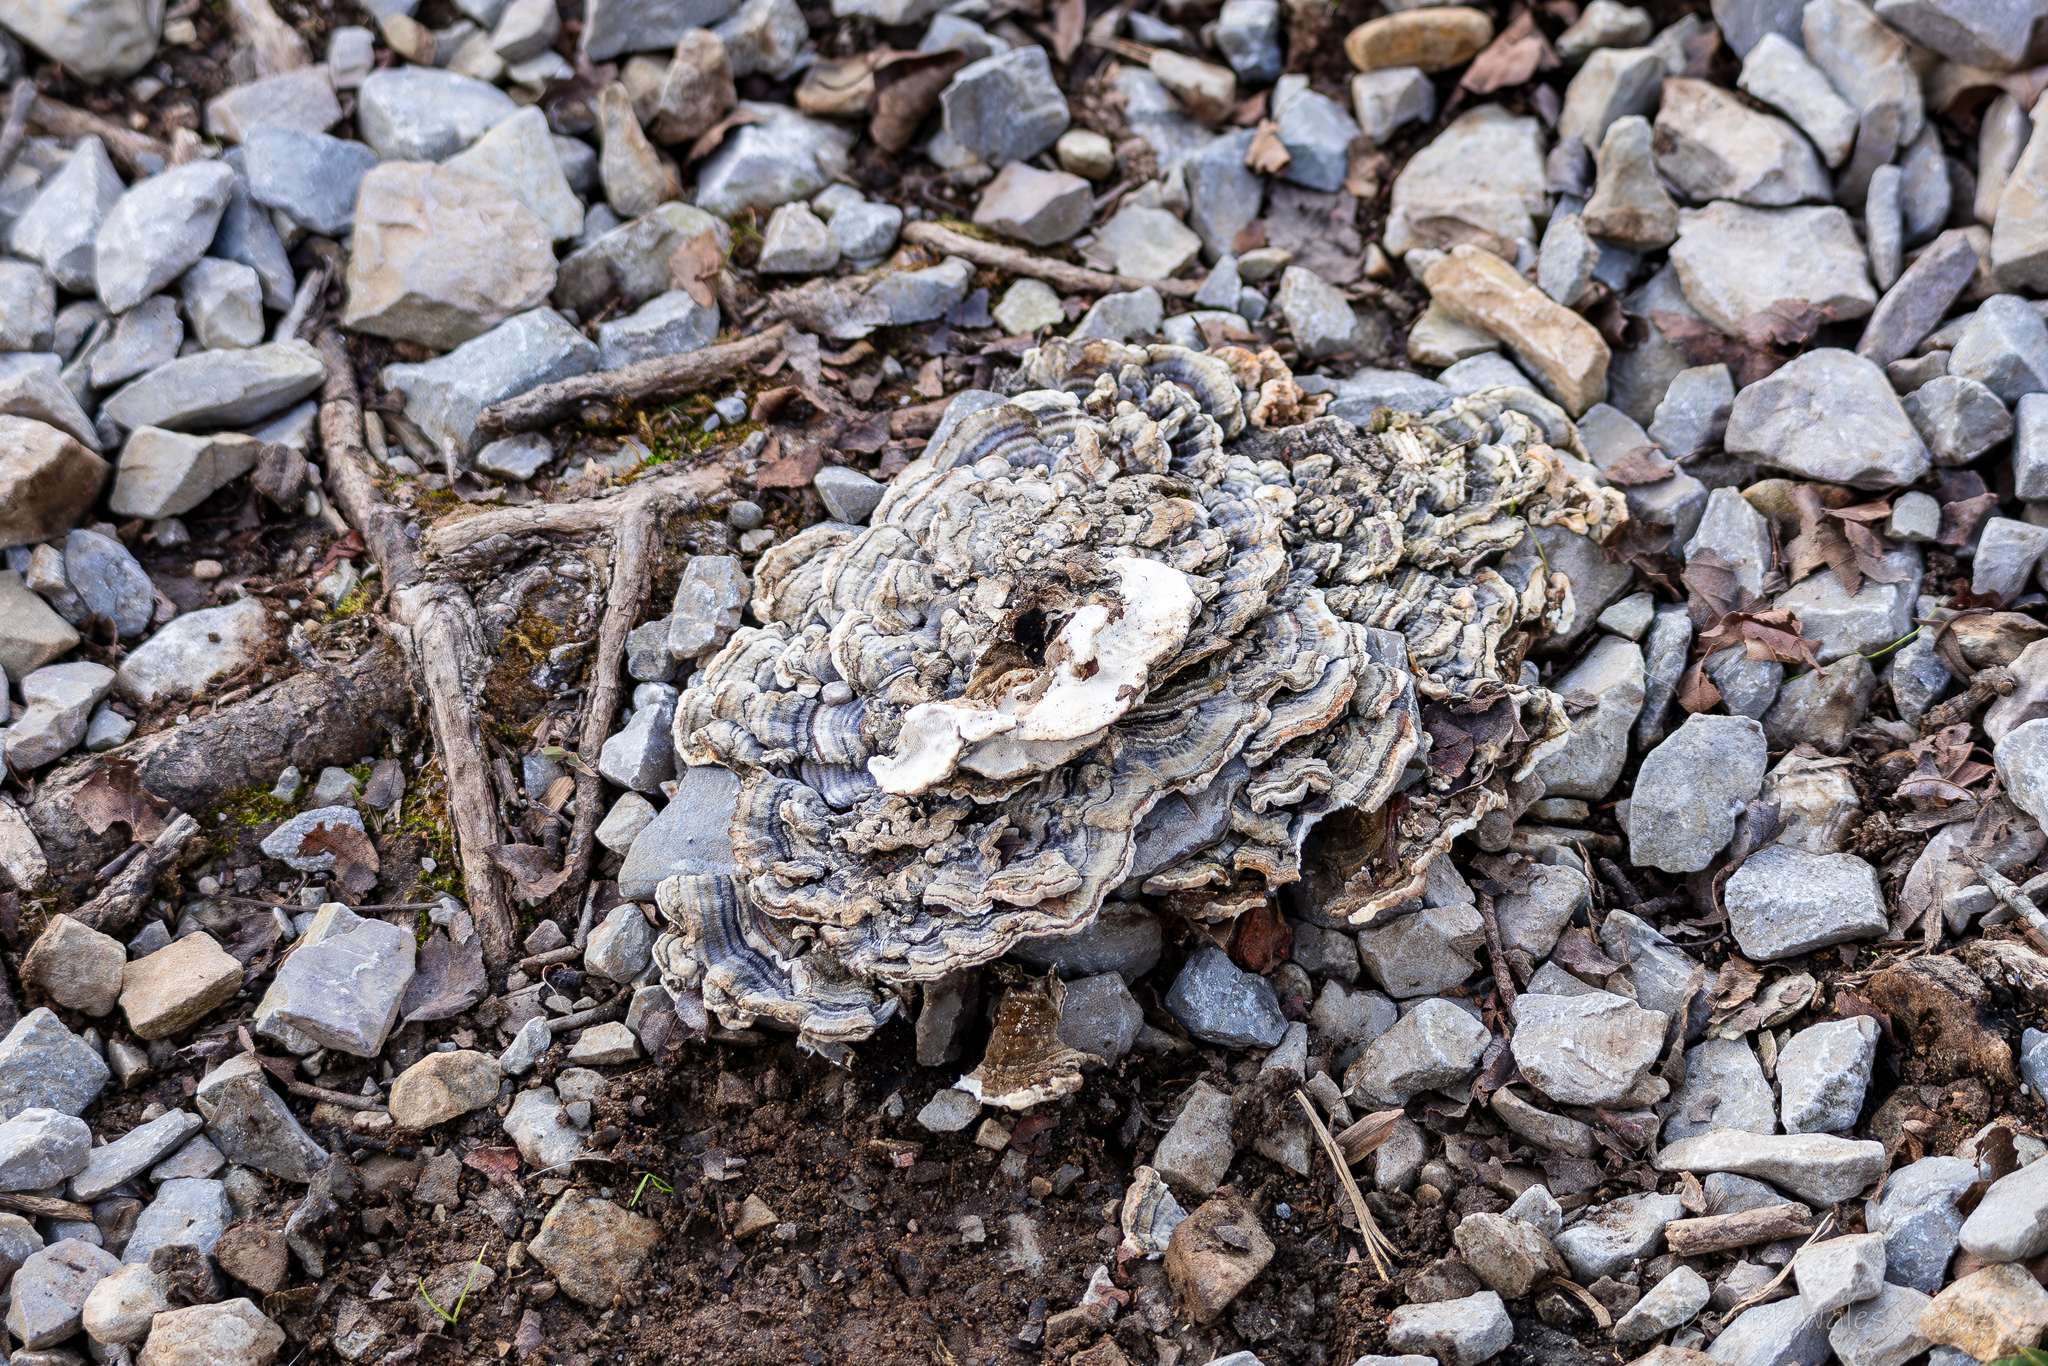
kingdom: Fungi
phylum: Basidiomycota
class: Agaricomycetes
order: Polyporales
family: Polyporaceae
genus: Trametes
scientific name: Trametes versicolor
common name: Turkeytail
